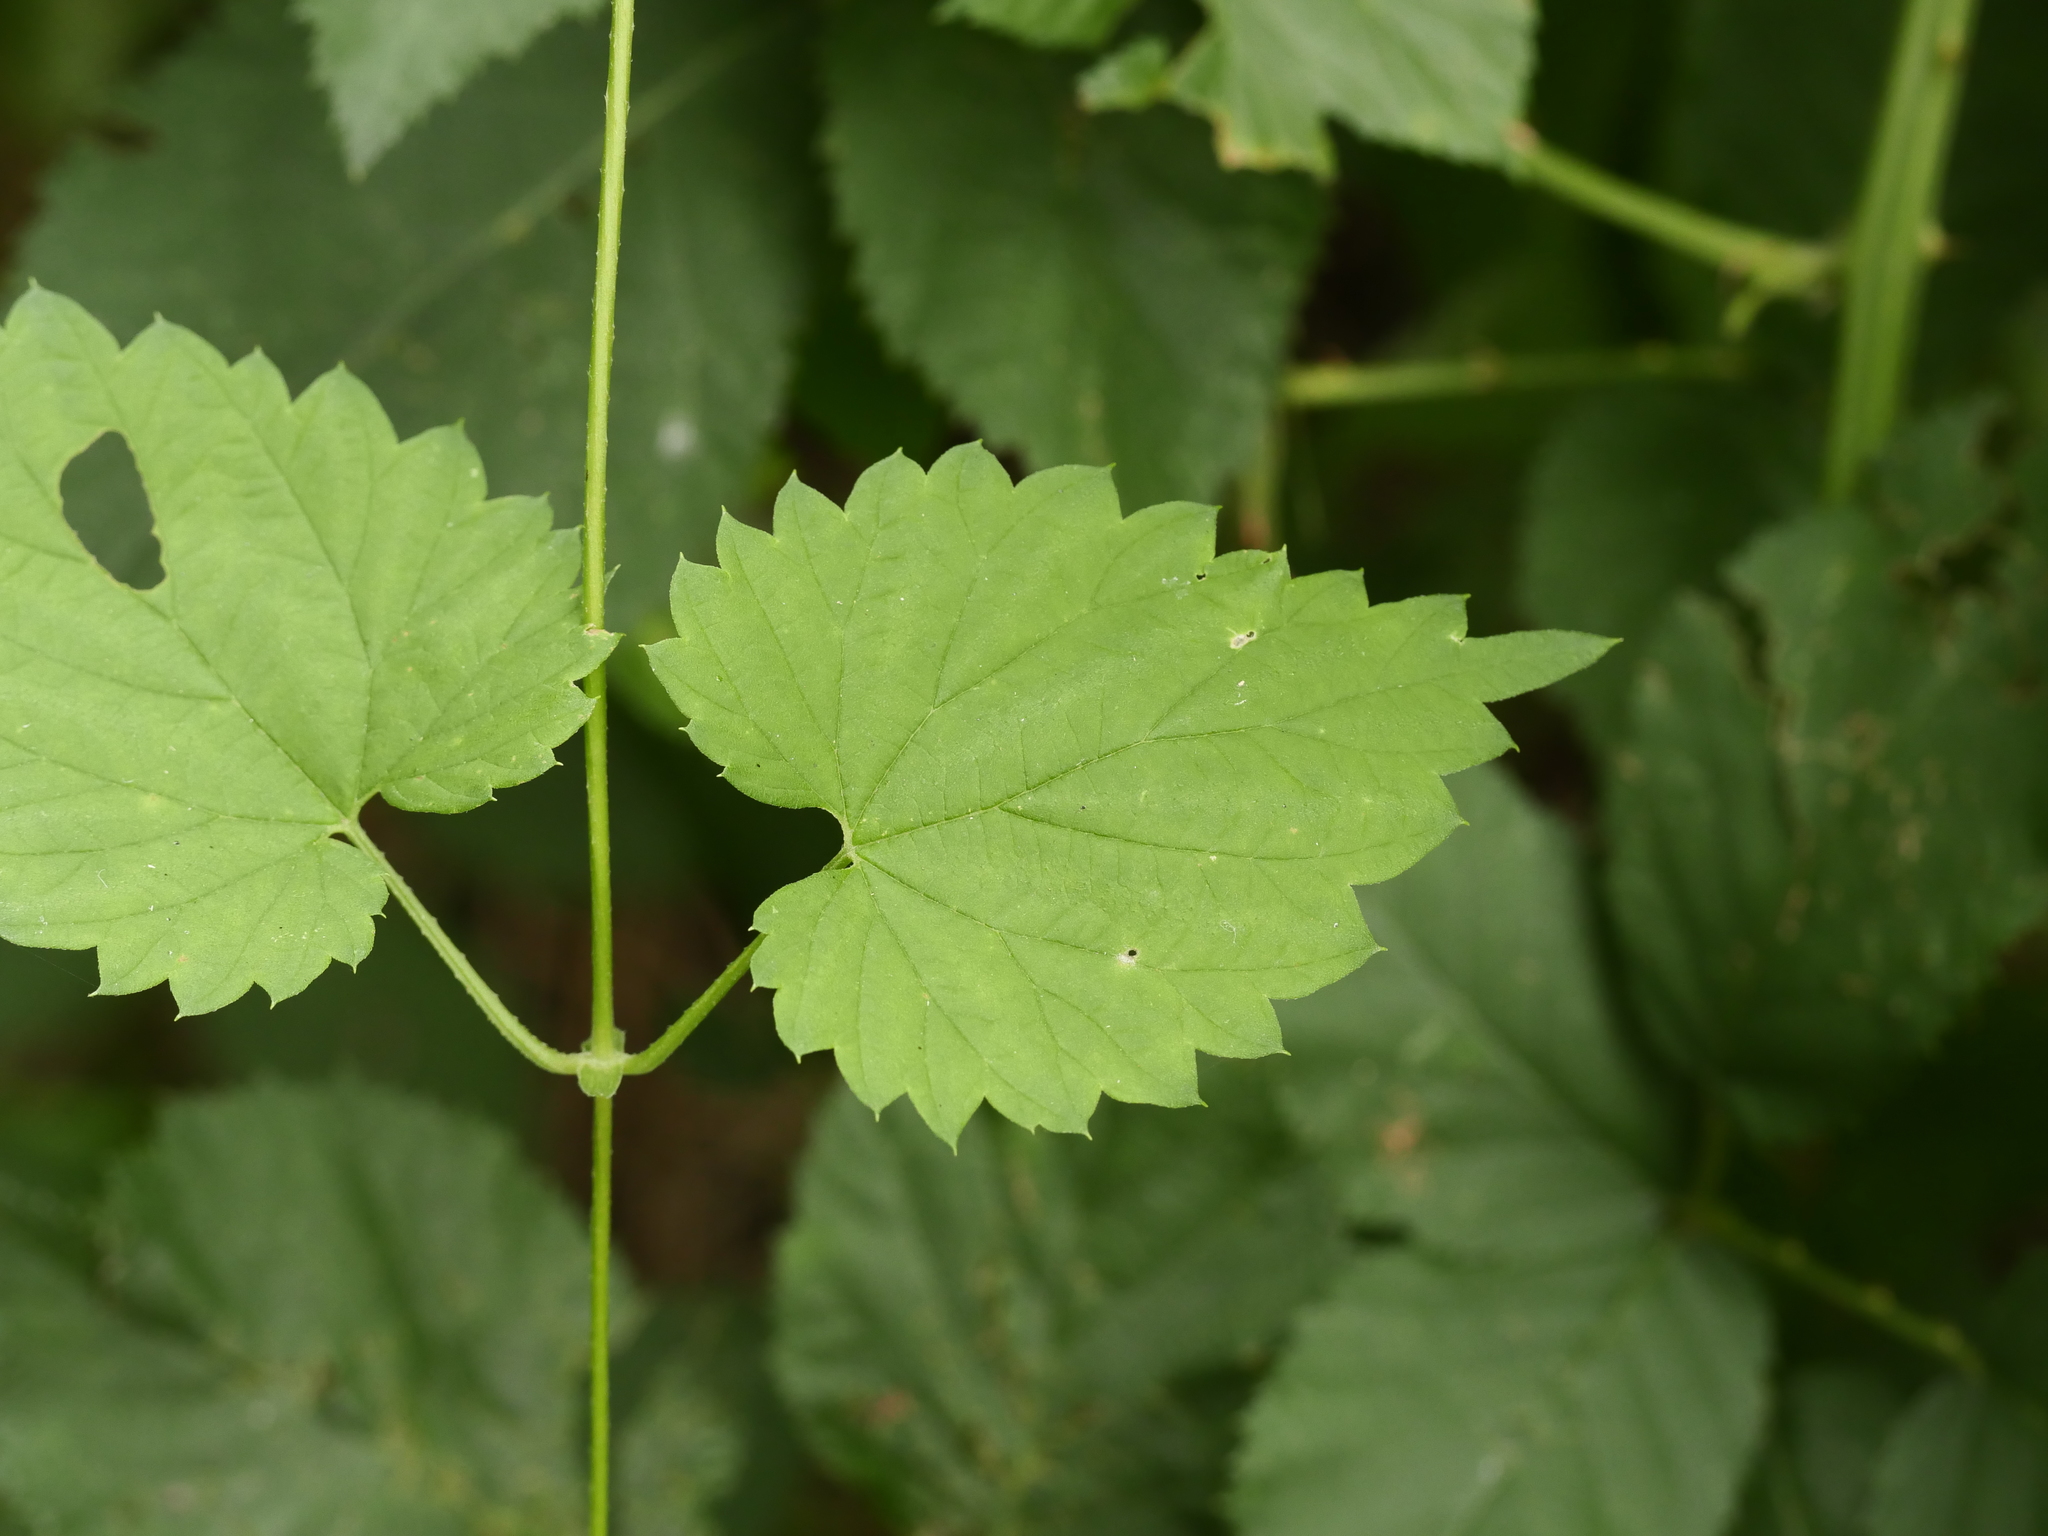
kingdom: Plantae
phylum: Tracheophyta
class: Magnoliopsida
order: Rosales
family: Cannabaceae
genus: Humulus
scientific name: Humulus lupulus
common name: Hop
